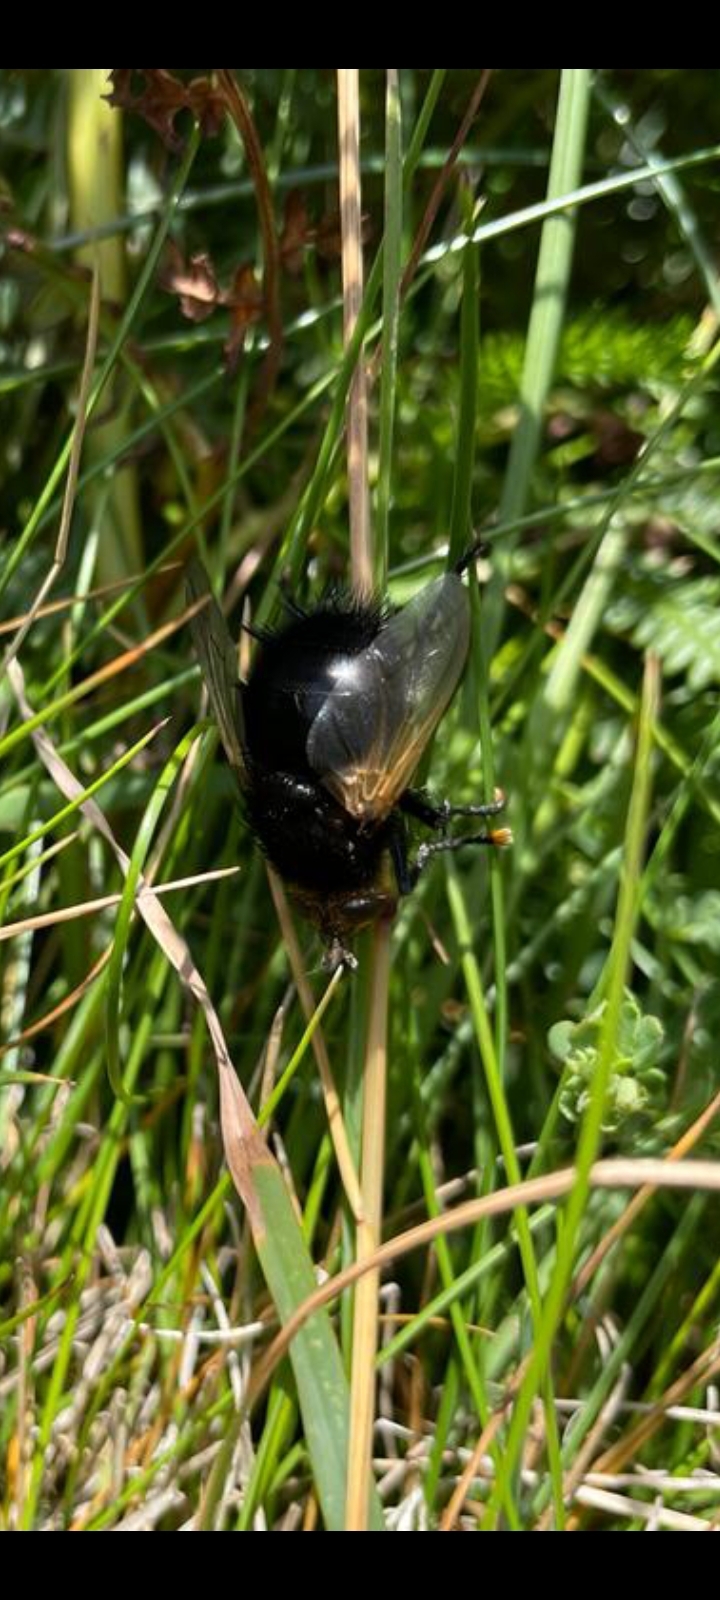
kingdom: Animalia
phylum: Arthropoda
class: Insecta
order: Diptera
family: Tachinidae
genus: Tachina
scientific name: Tachina grossa
